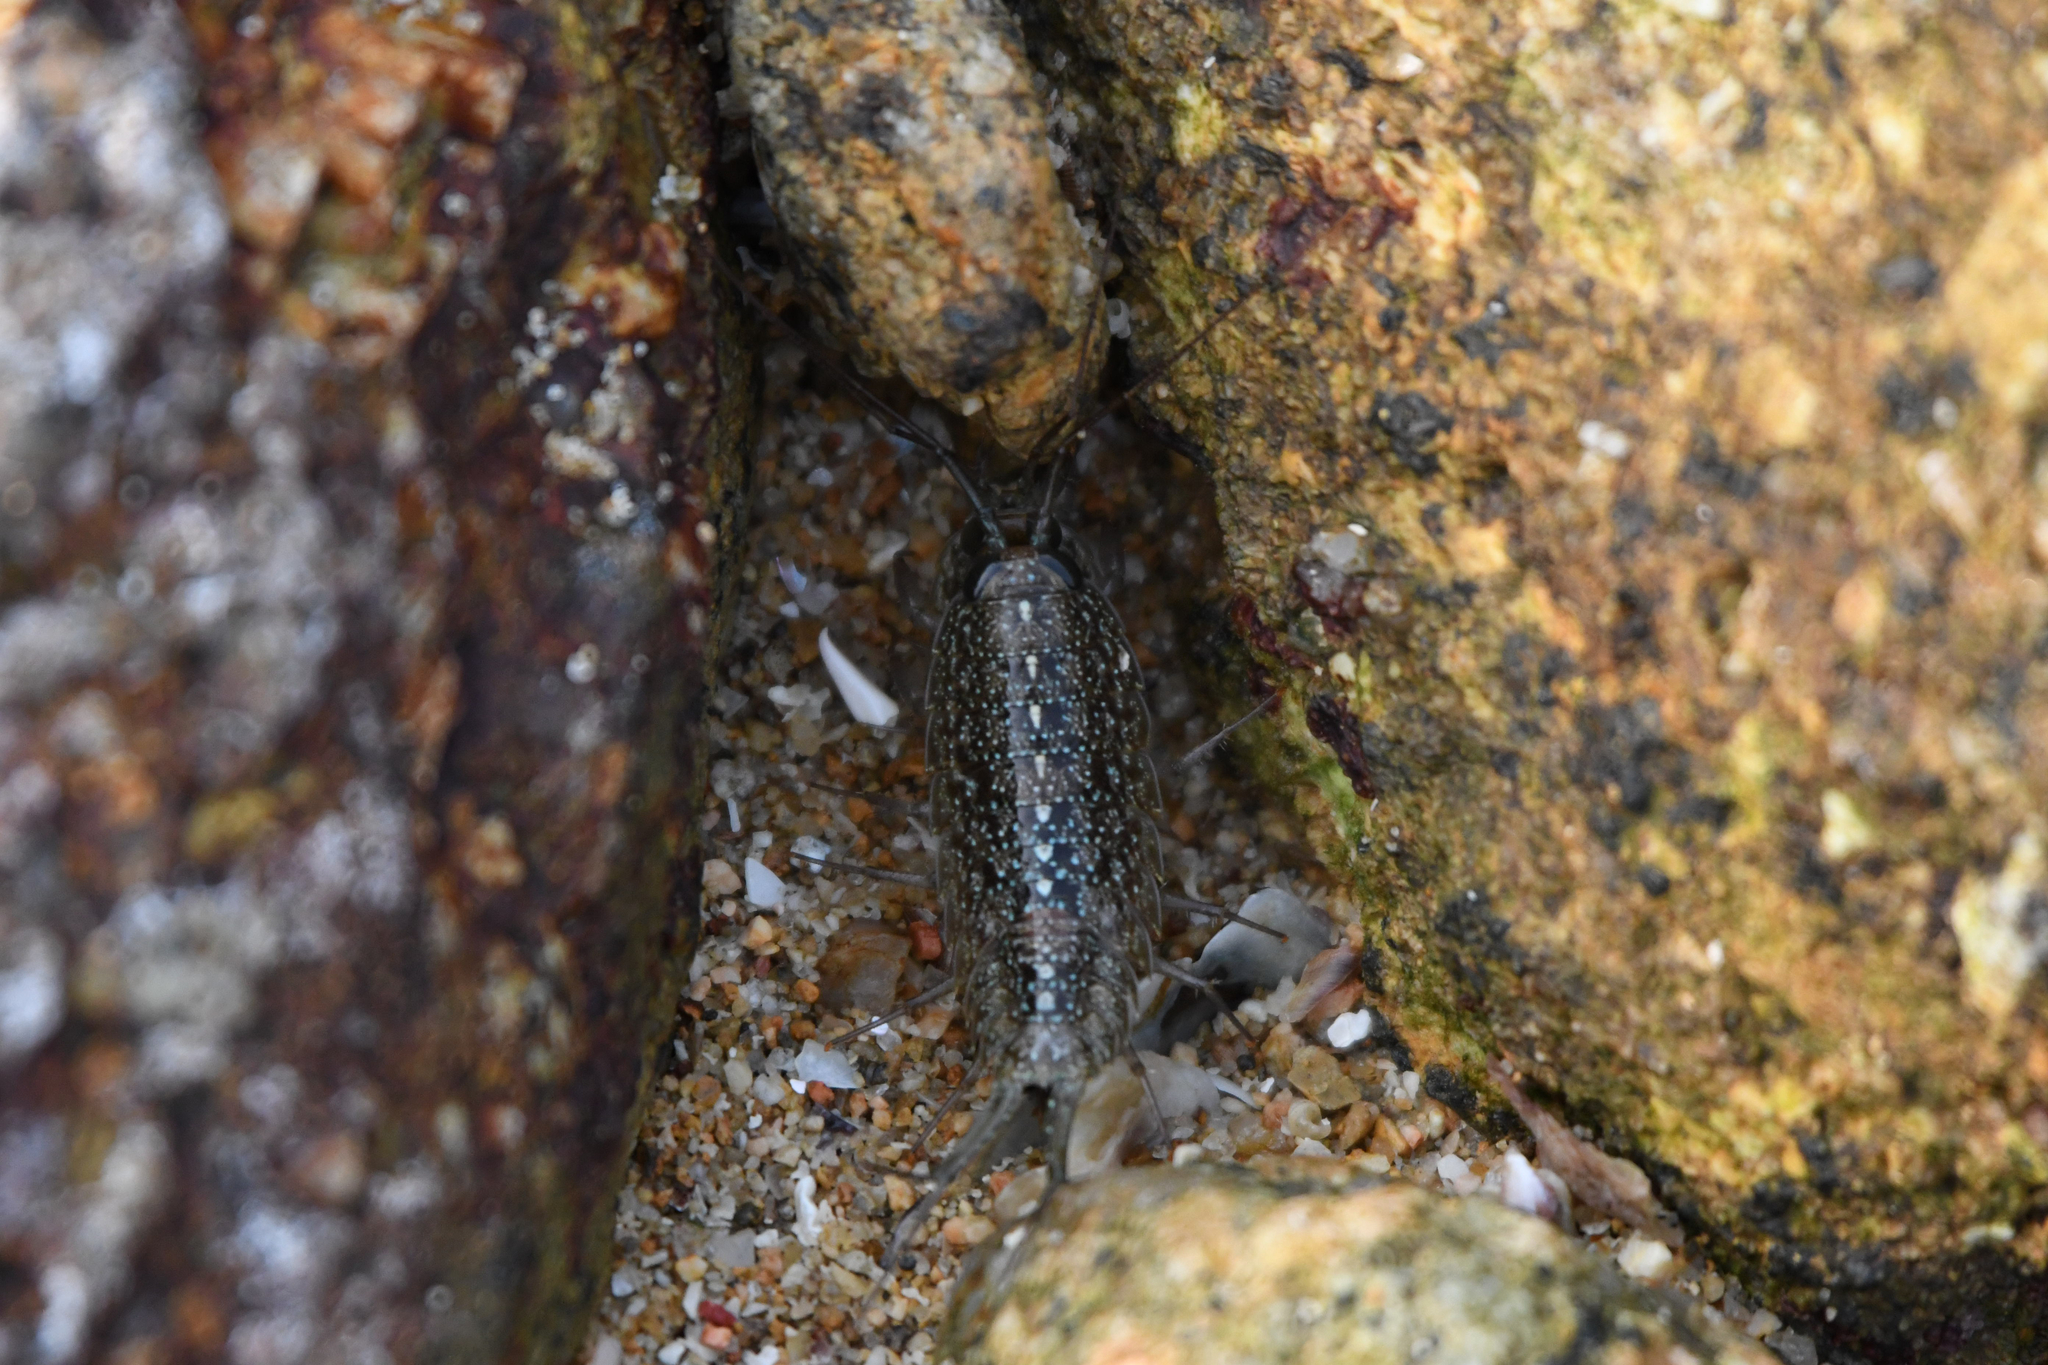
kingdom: Animalia
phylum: Arthropoda
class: Malacostraca
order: Isopoda
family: Ligiidae
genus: Ligia
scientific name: Ligia exotica
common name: Wharf roach
